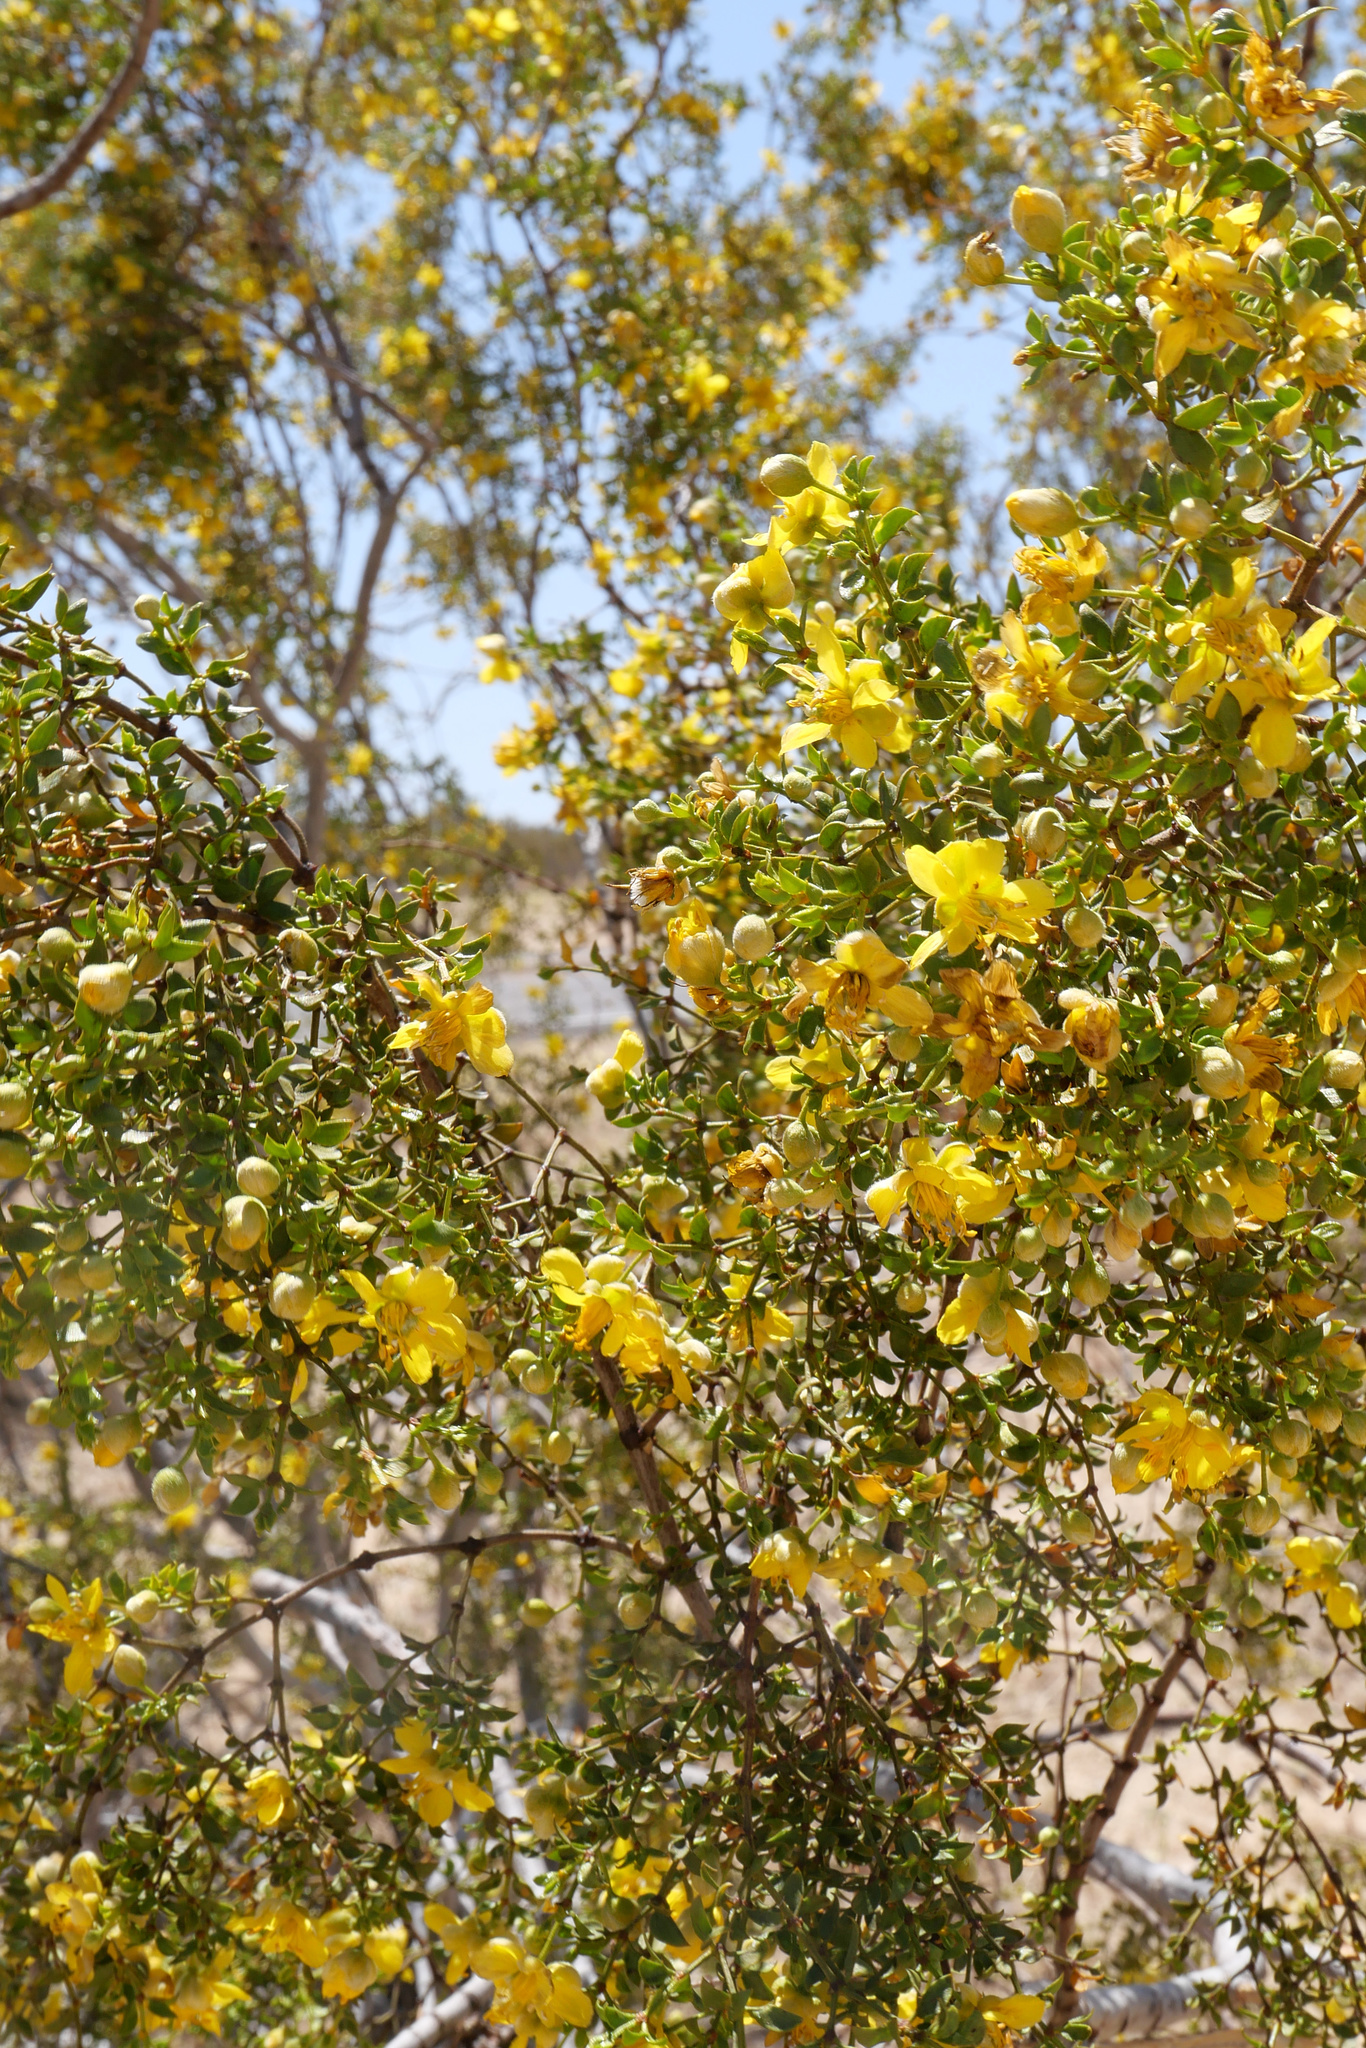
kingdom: Plantae
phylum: Tracheophyta
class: Magnoliopsida
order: Zygophyllales
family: Zygophyllaceae
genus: Larrea
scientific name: Larrea tridentata
